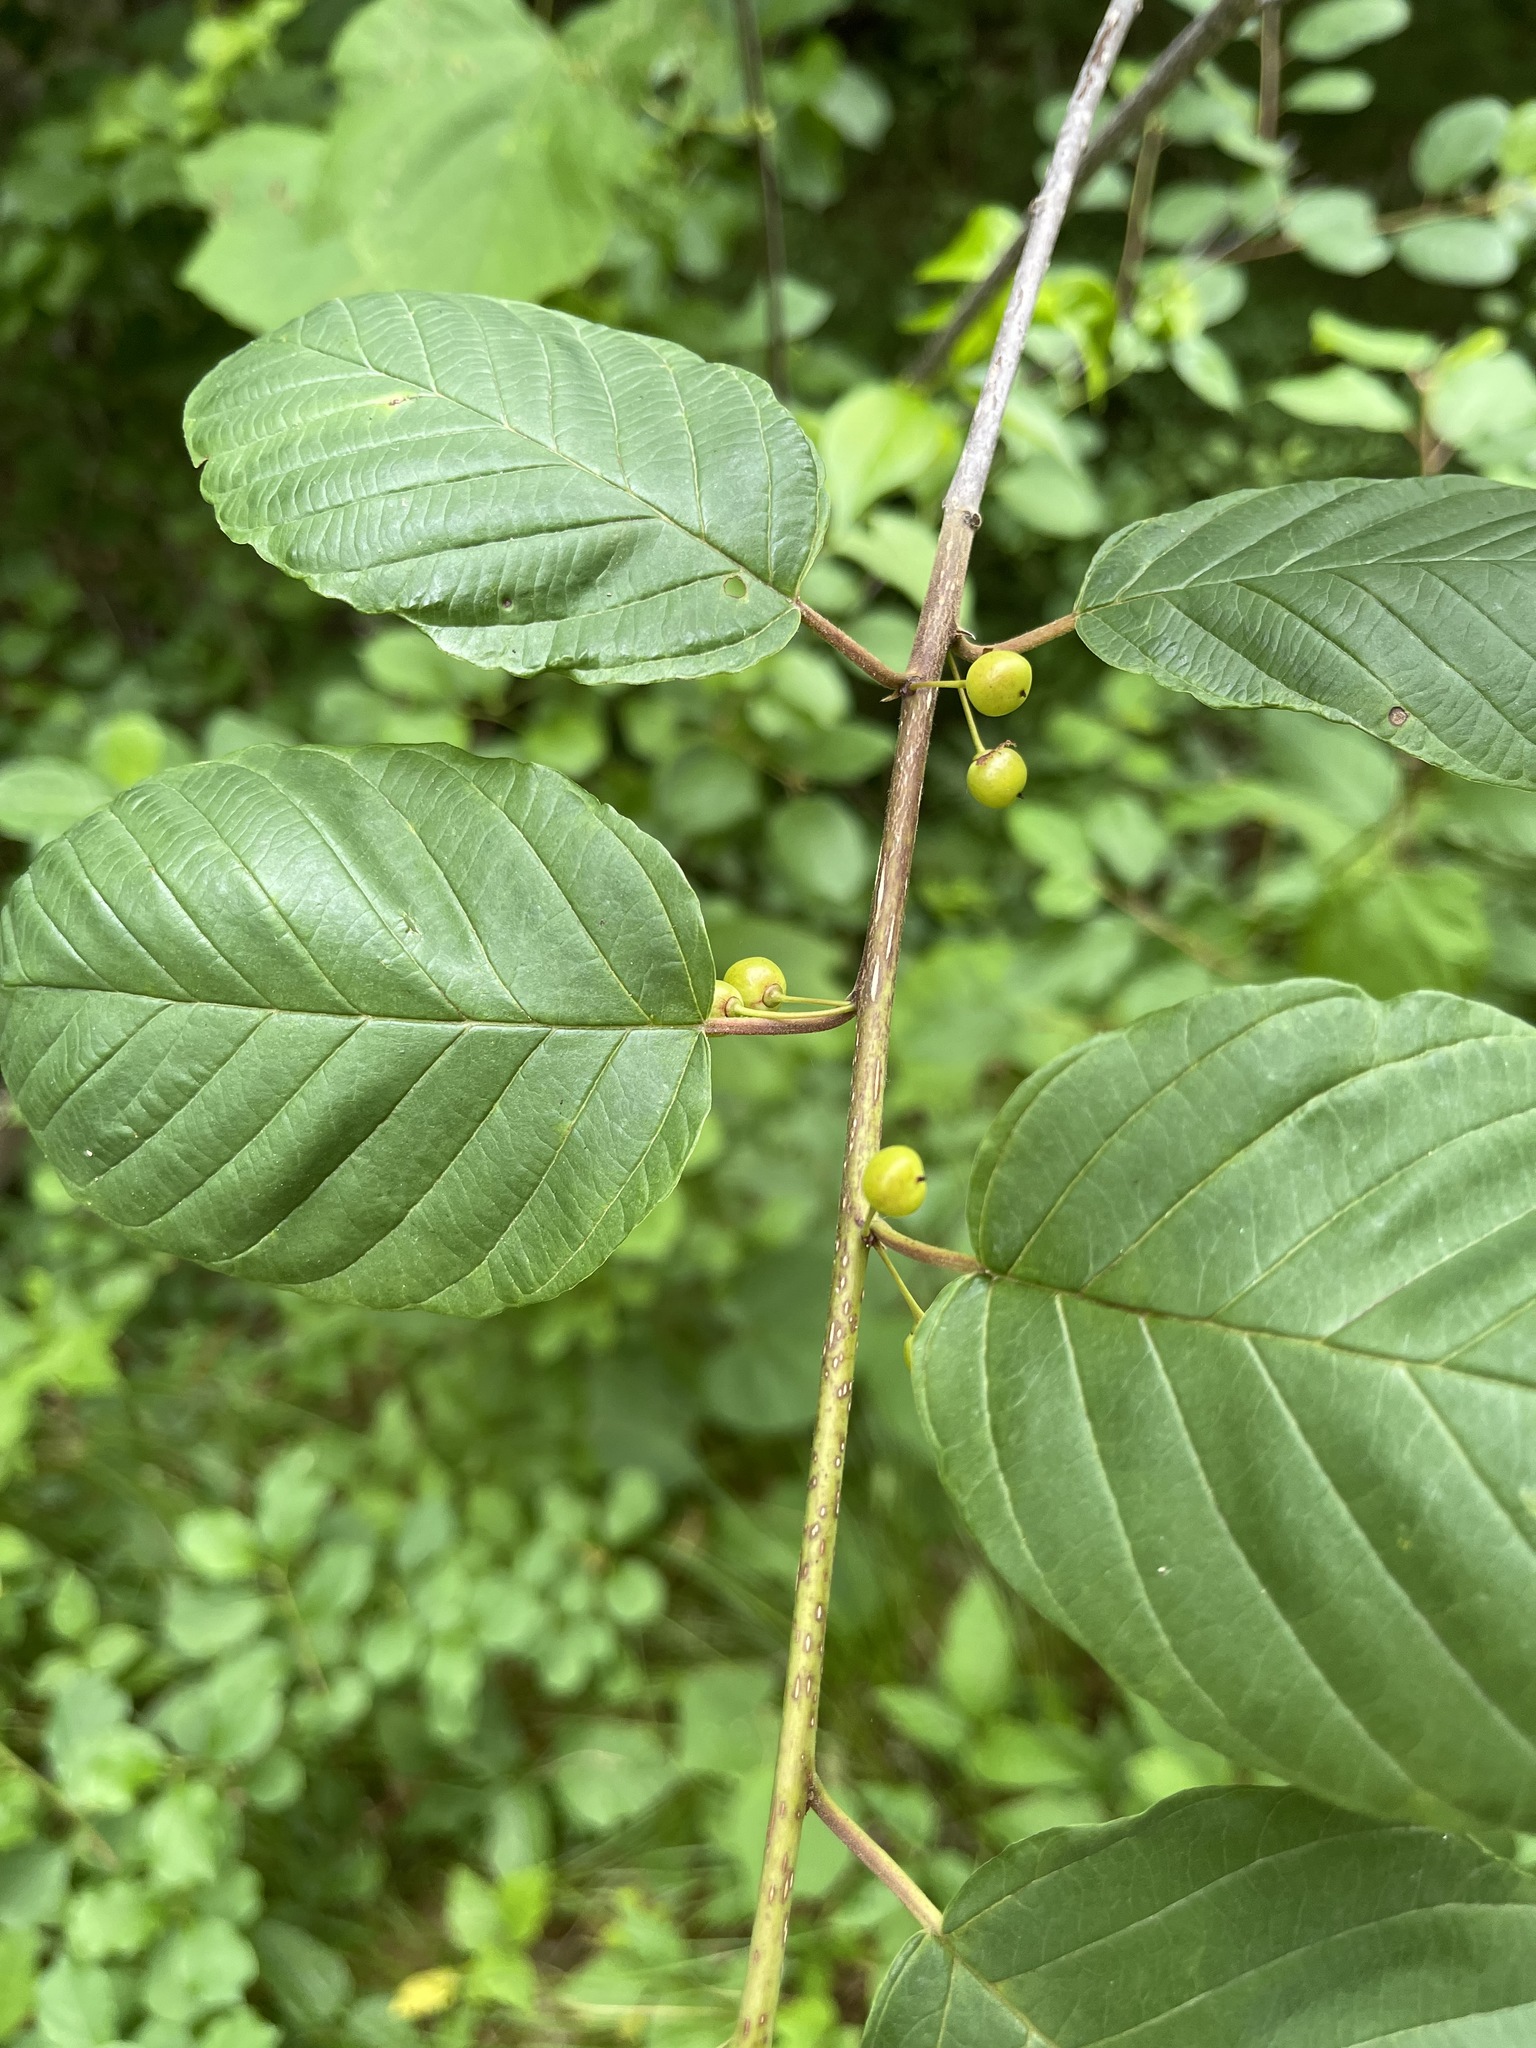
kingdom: Plantae
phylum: Tracheophyta
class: Magnoliopsida
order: Rosales
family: Rhamnaceae
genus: Frangula
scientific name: Frangula alnus
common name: Alder buckthorn
